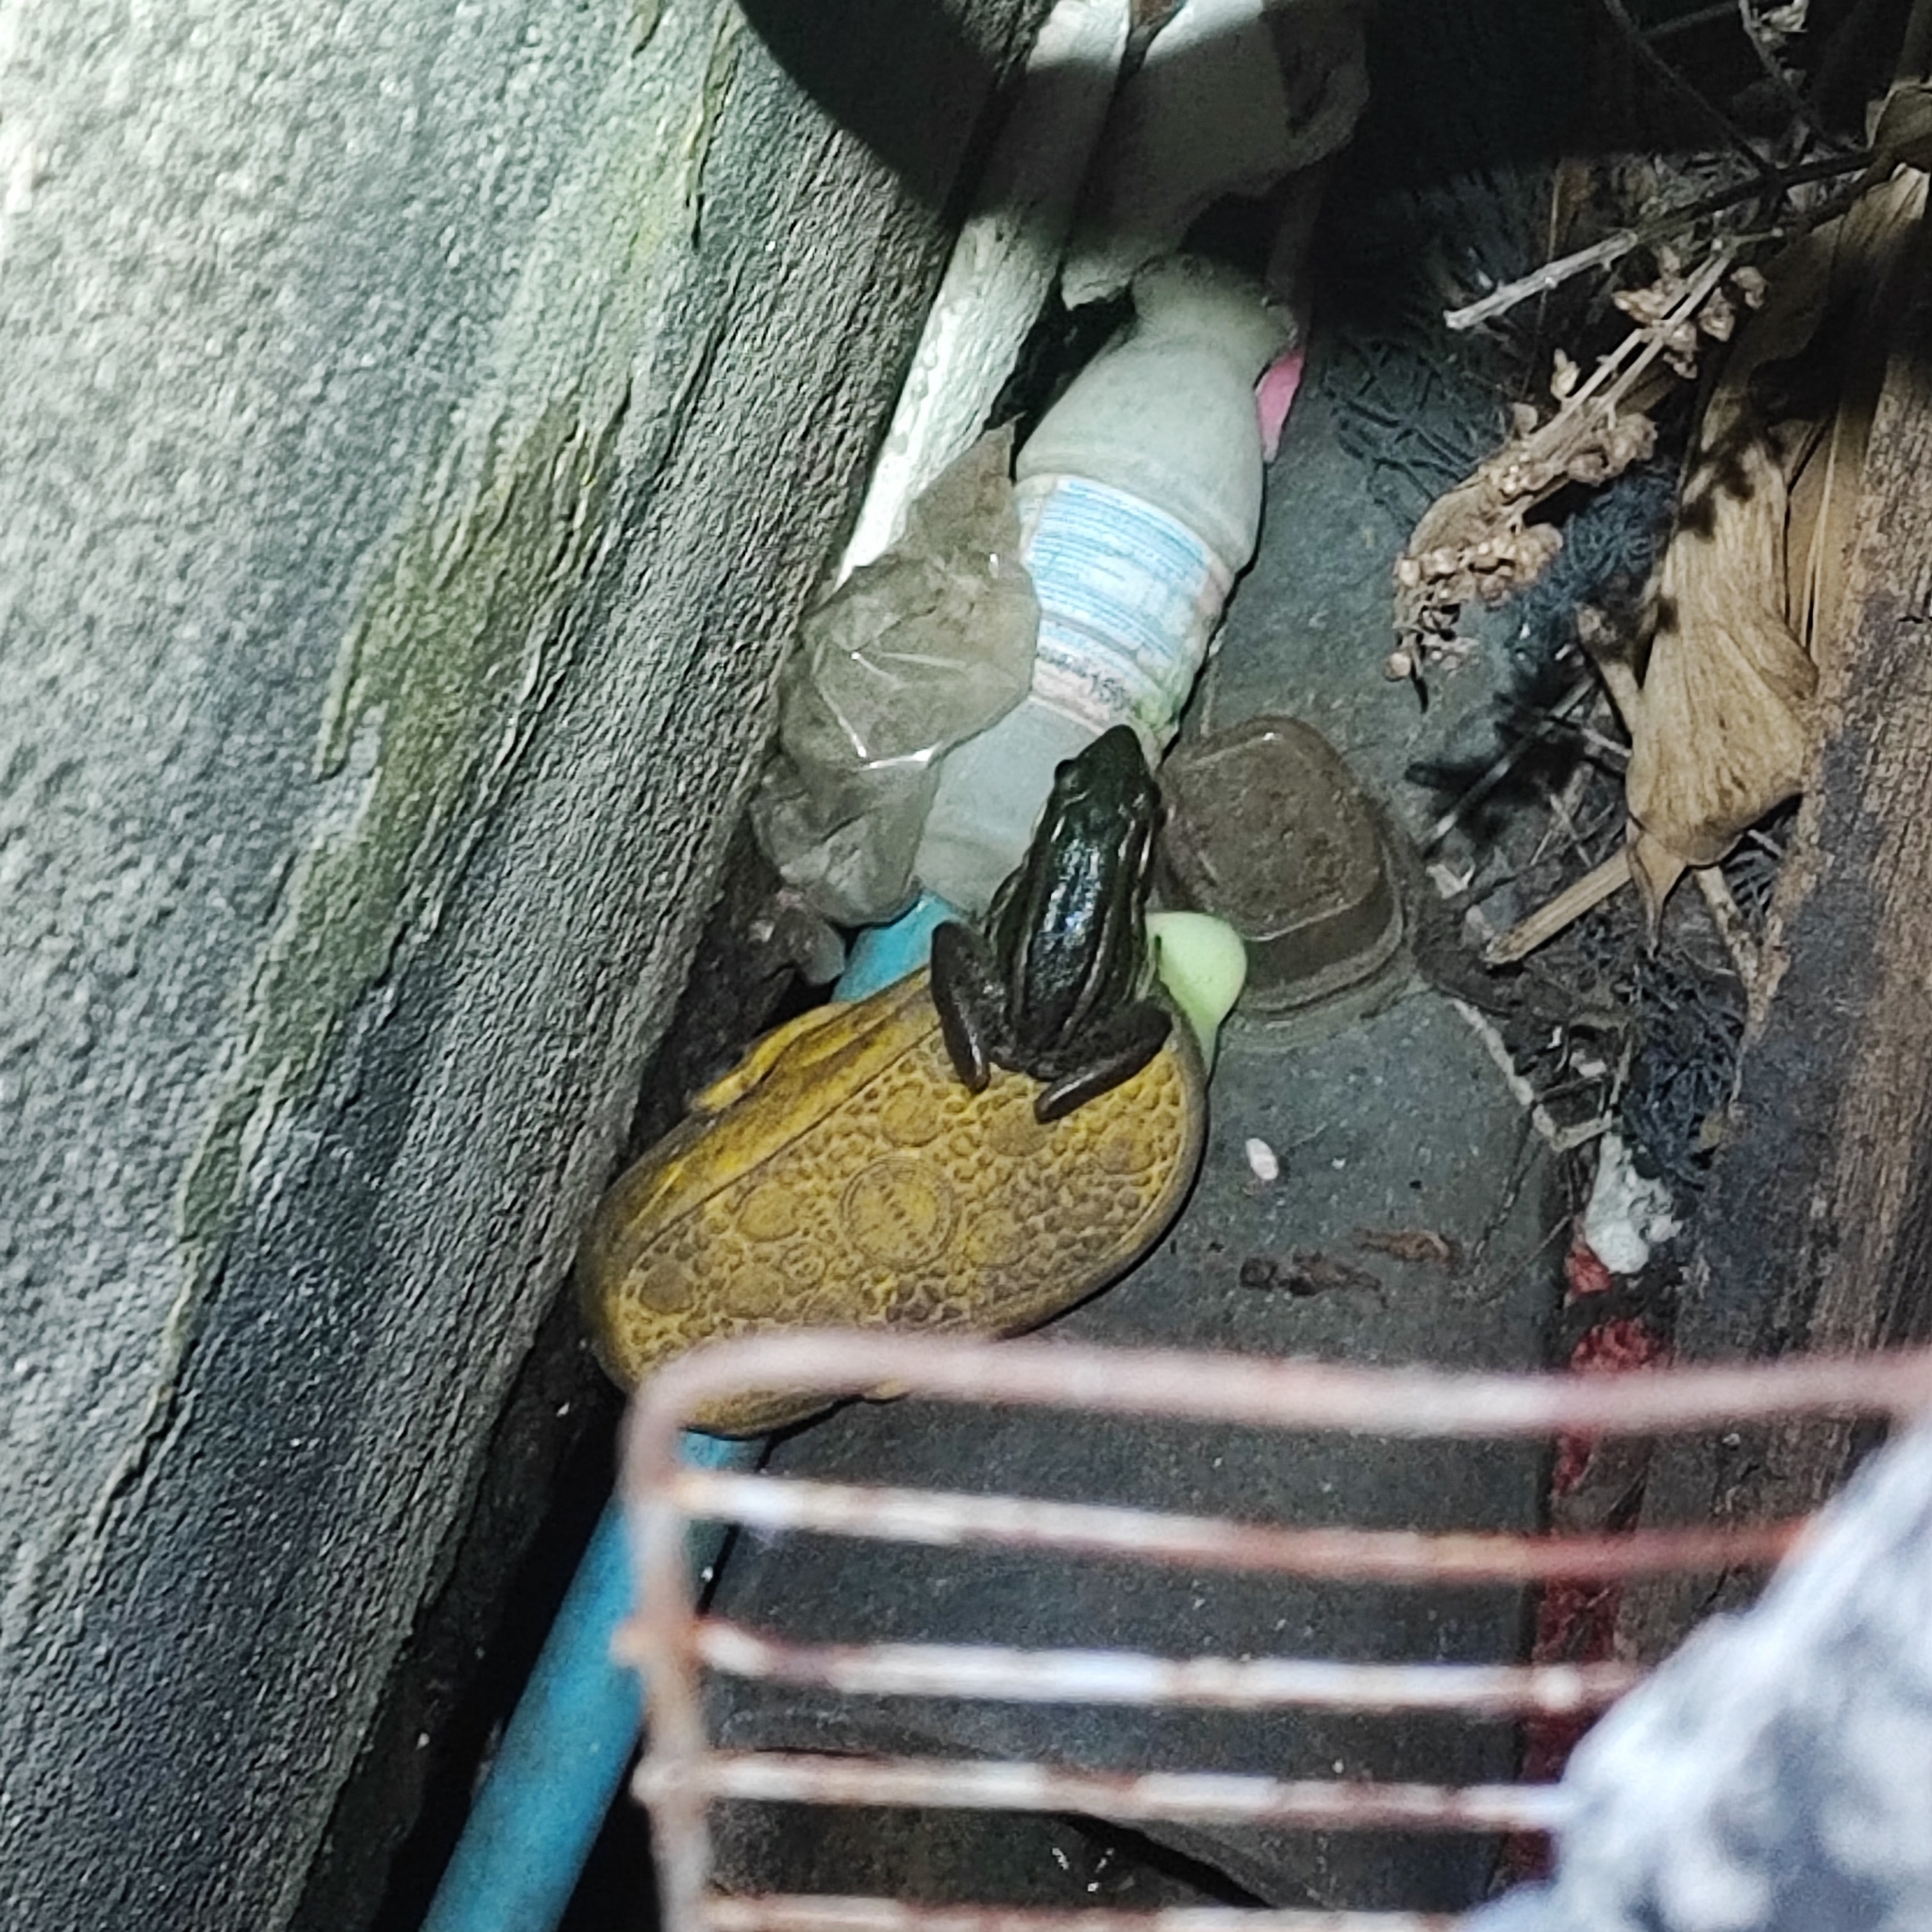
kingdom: Animalia
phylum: Chordata
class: Amphibia
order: Anura
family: Ranidae
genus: Hylarana
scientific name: Hylarana erythraea
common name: Common green frog/green paddy frog/leaf frog
